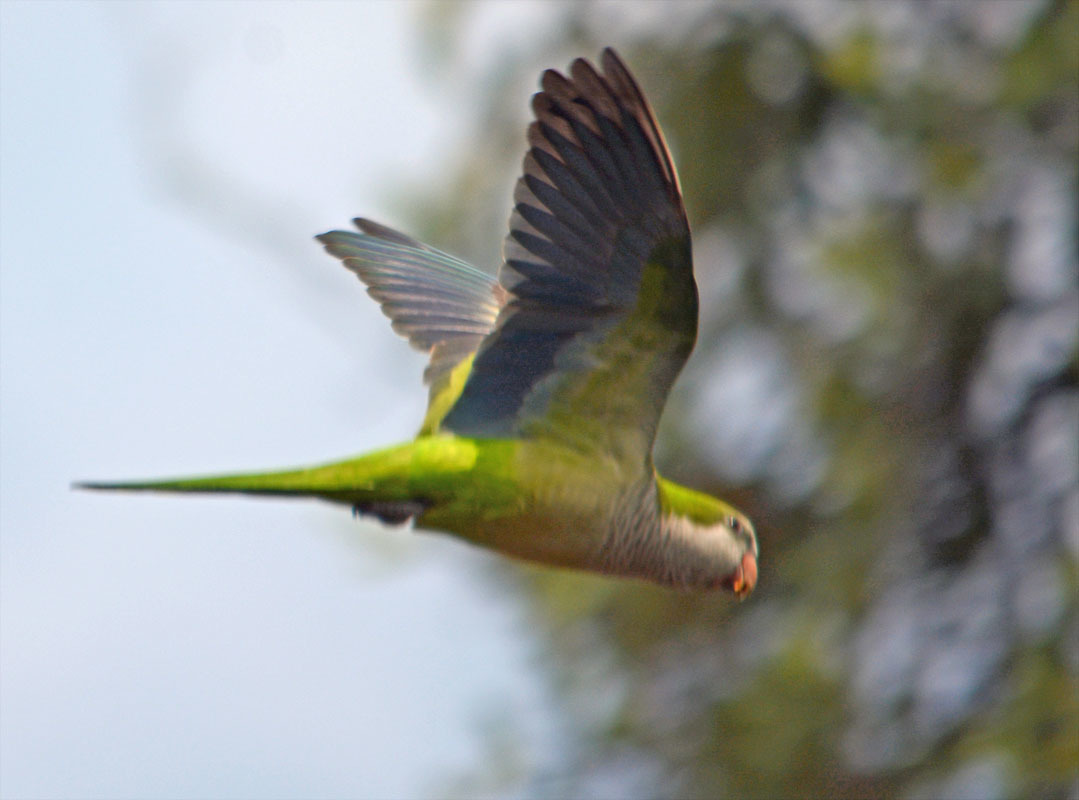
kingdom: Animalia
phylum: Chordata
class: Aves
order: Psittaciformes
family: Psittacidae
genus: Myiopsitta
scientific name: Myiopsitta monachus
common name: Monk parakeet
